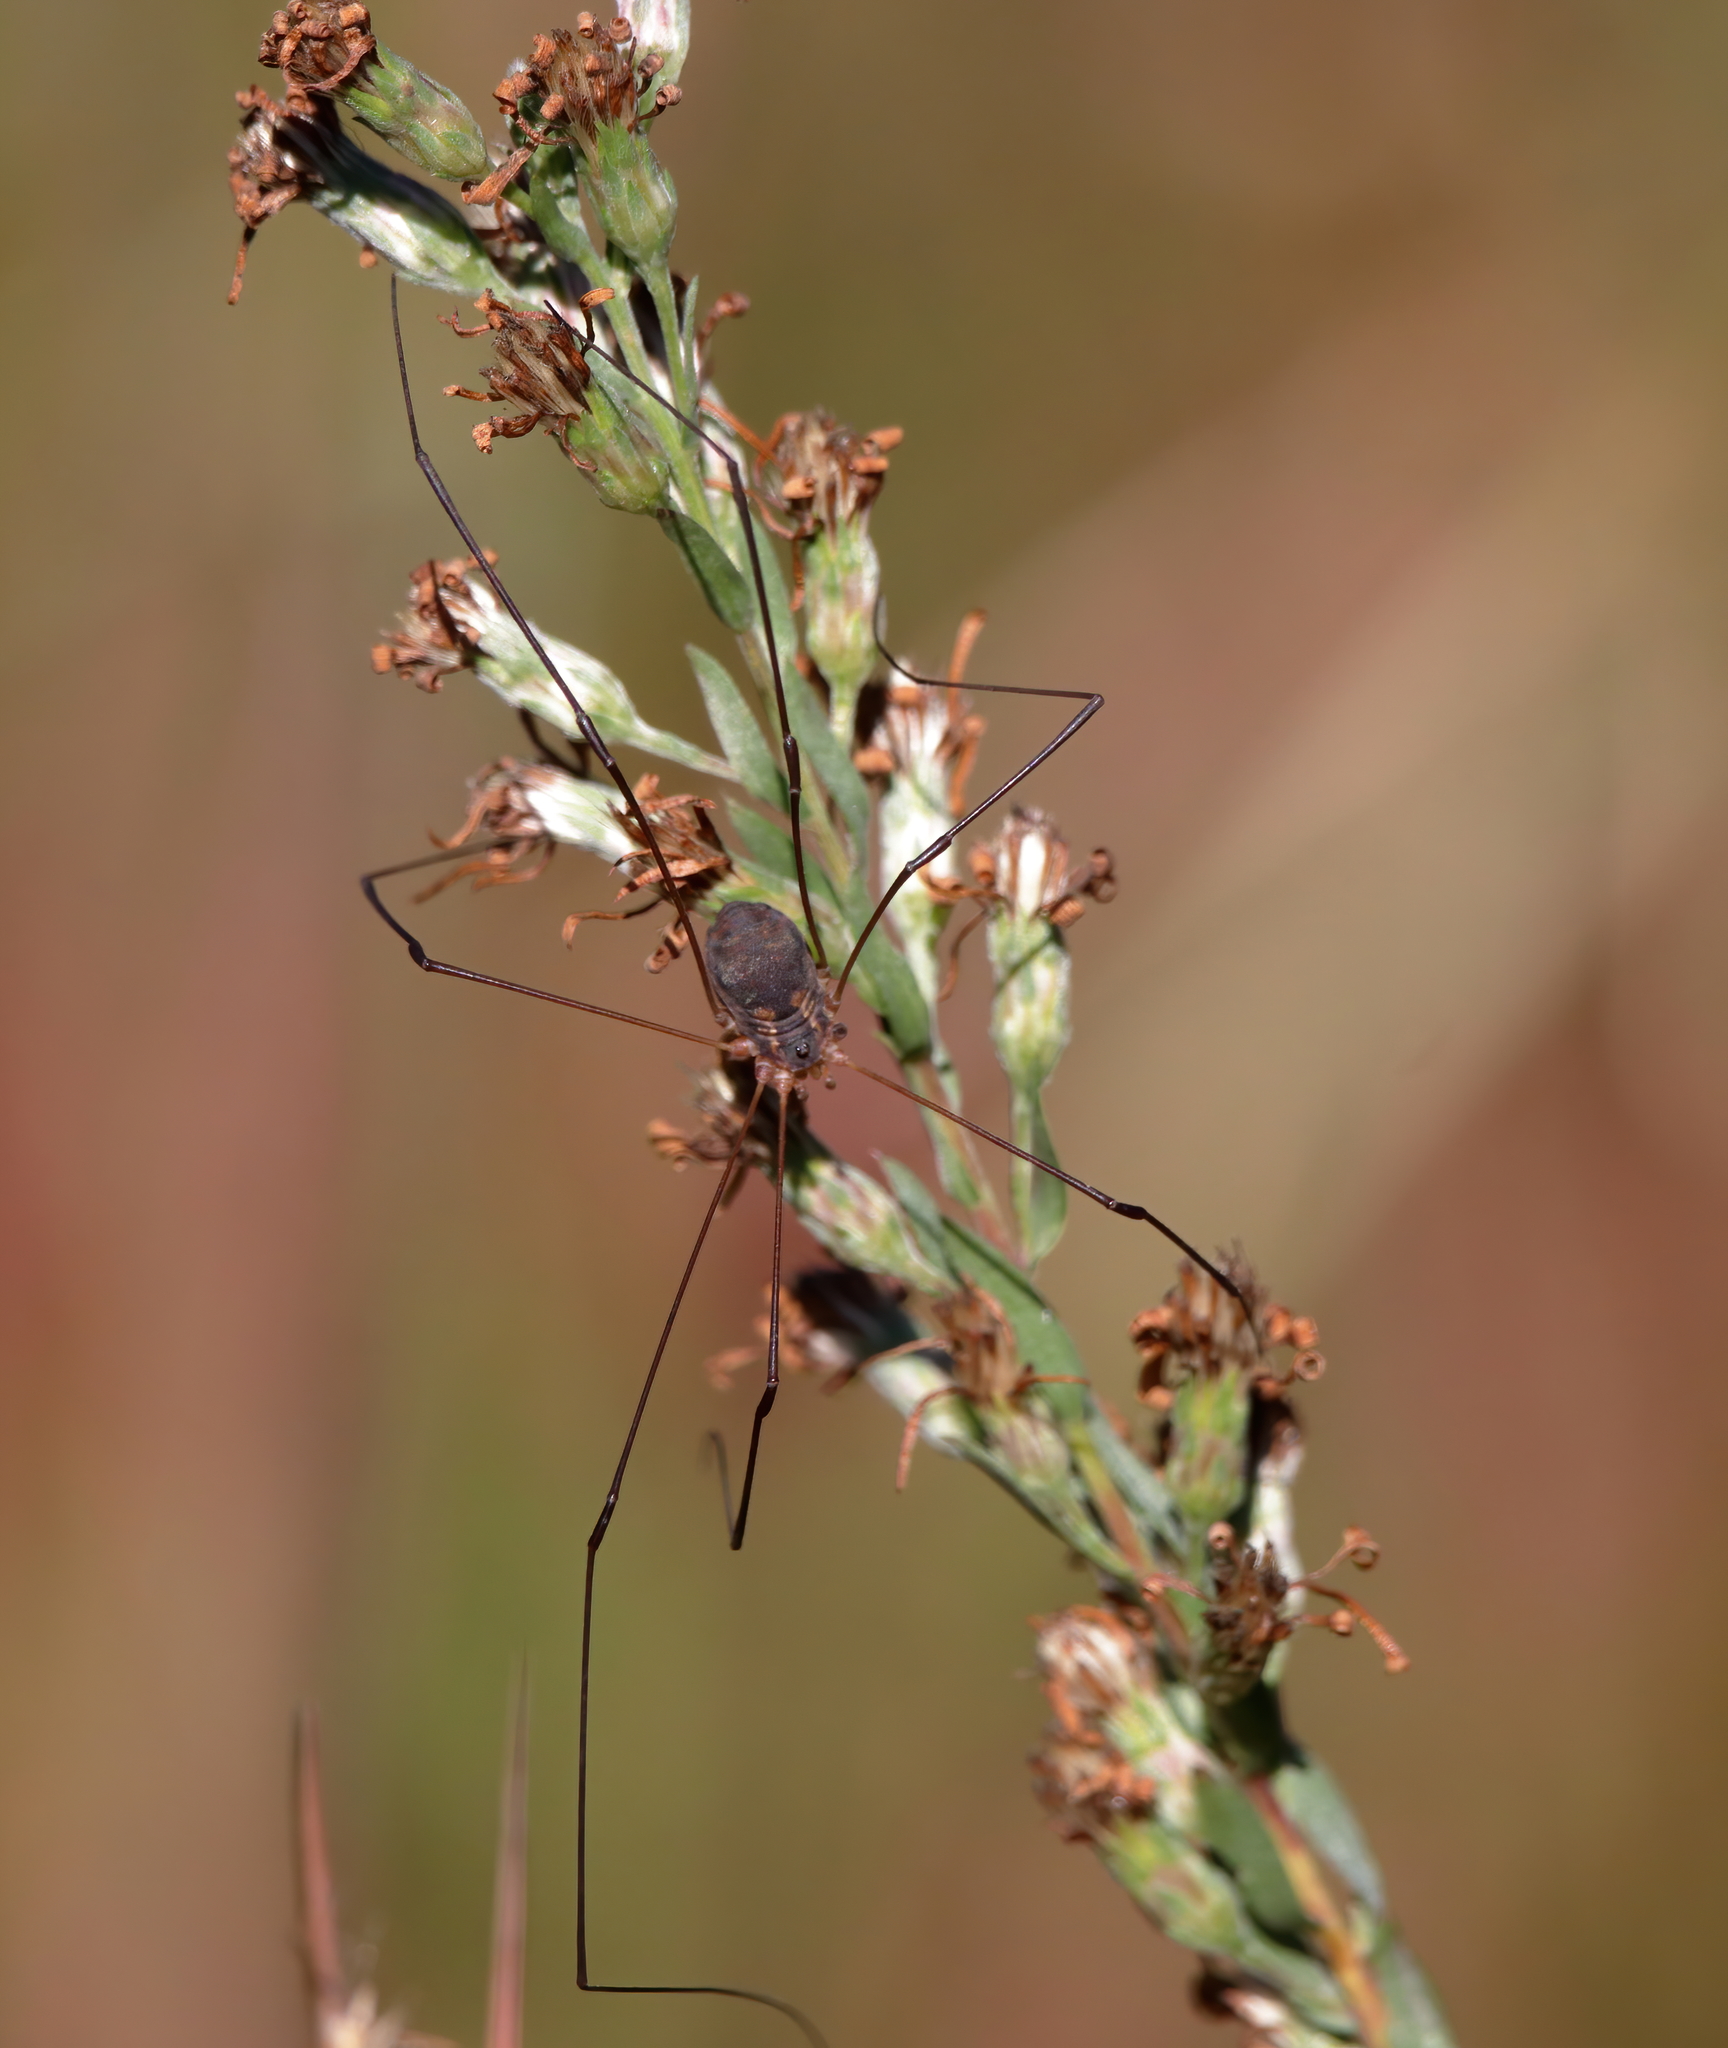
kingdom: Animalia
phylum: Arthropoda
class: Arachnida
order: Opiliones
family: Sclerosomatidae
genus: Leiobunum
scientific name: Leiobunum bimaculatum
